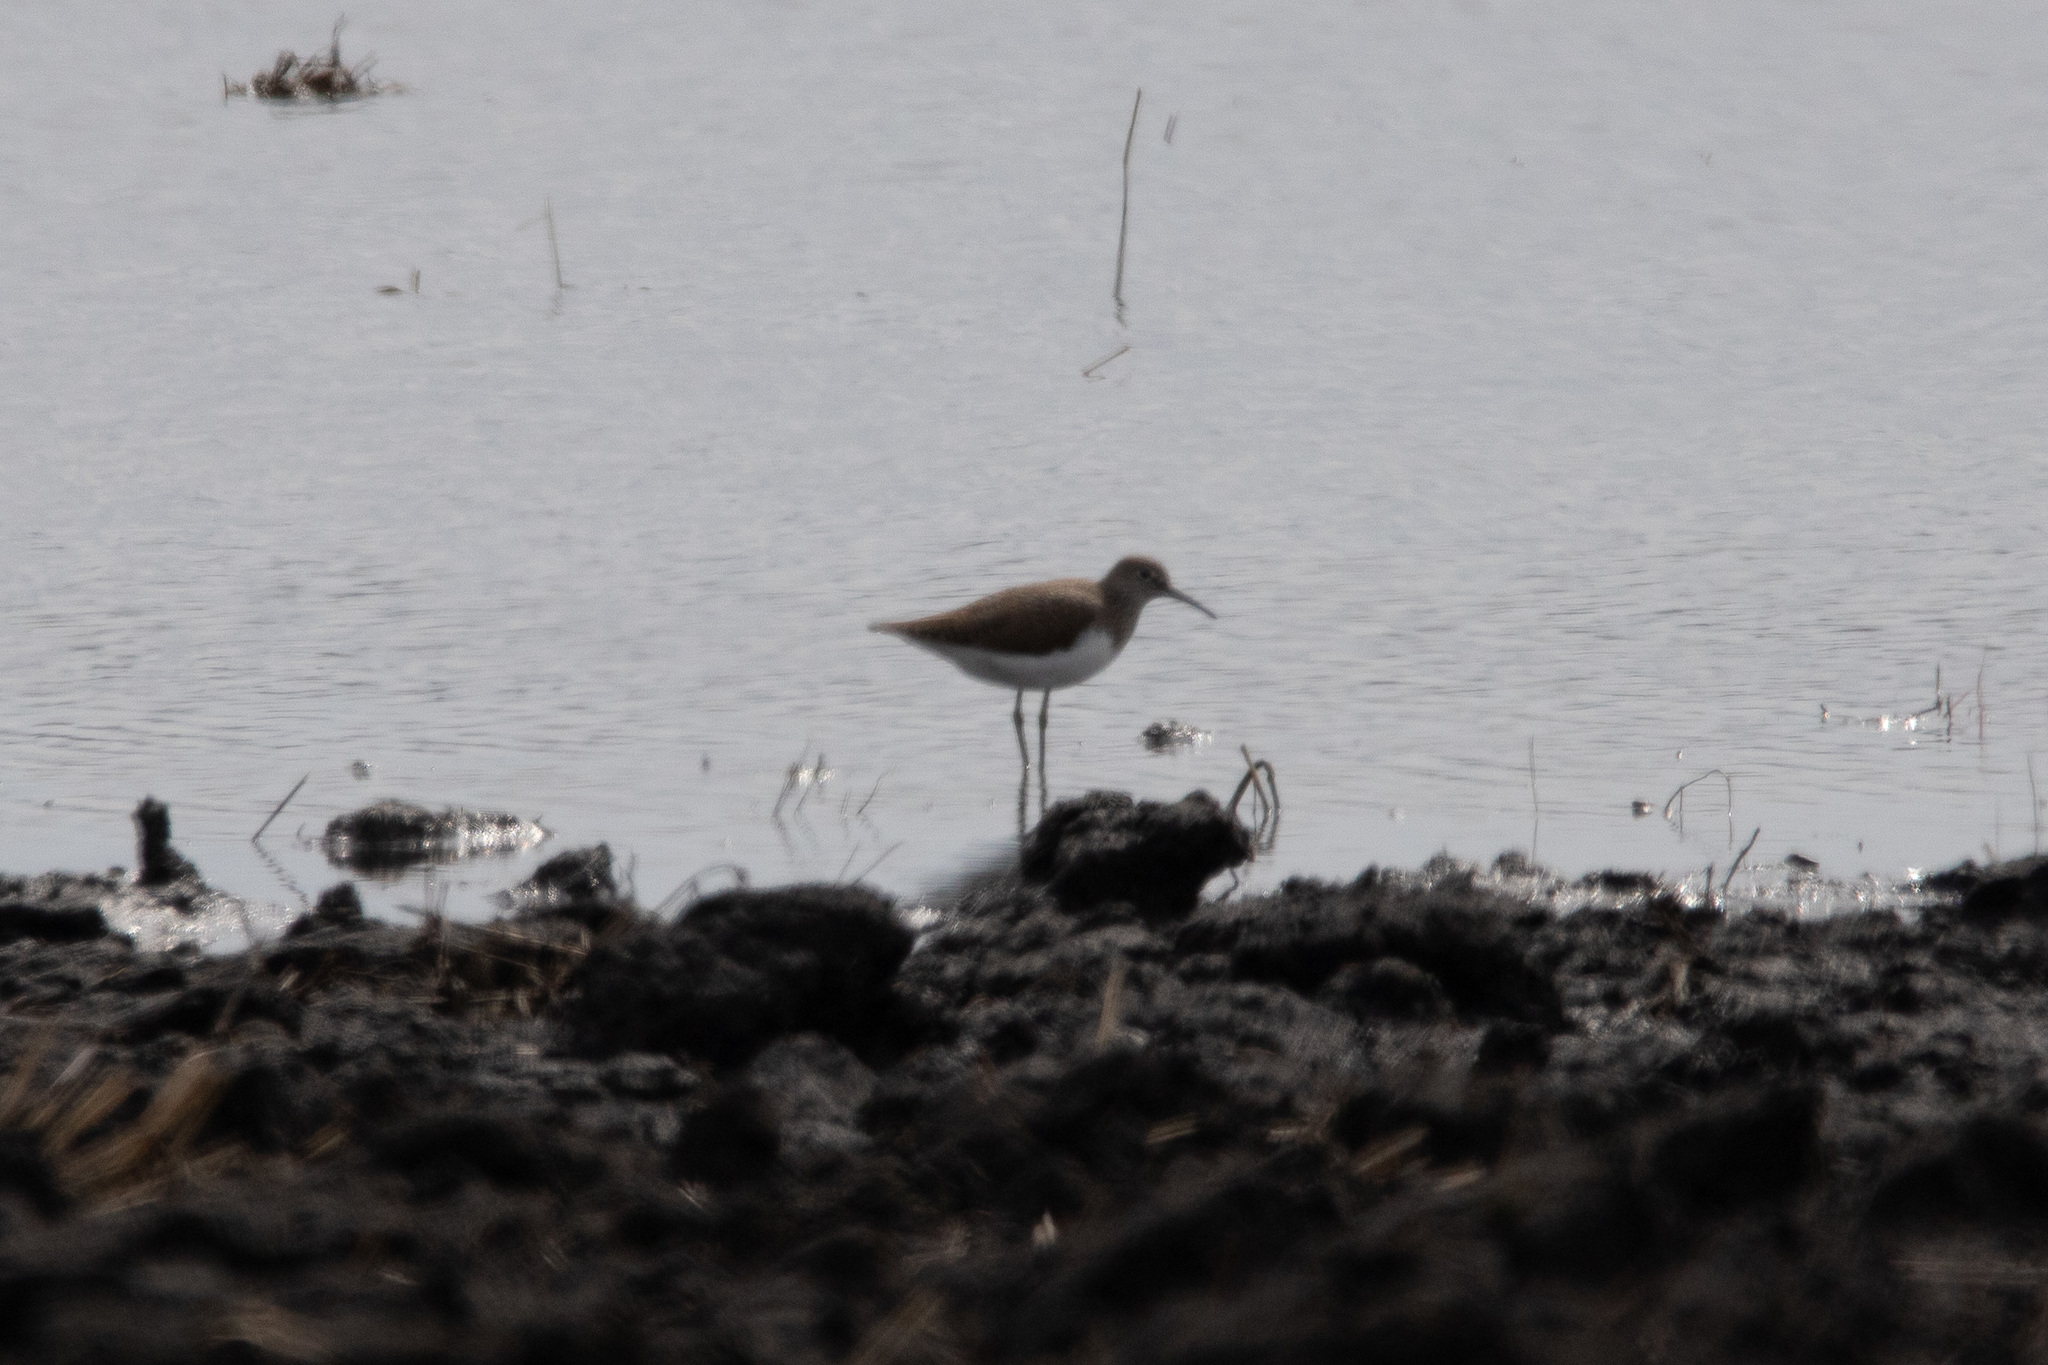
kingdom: Animalia
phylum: Chordata
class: Aves
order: Charadriiformes
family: Scolopacidae
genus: Tringa
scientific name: Tringa ochropus
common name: Green sandpiper
